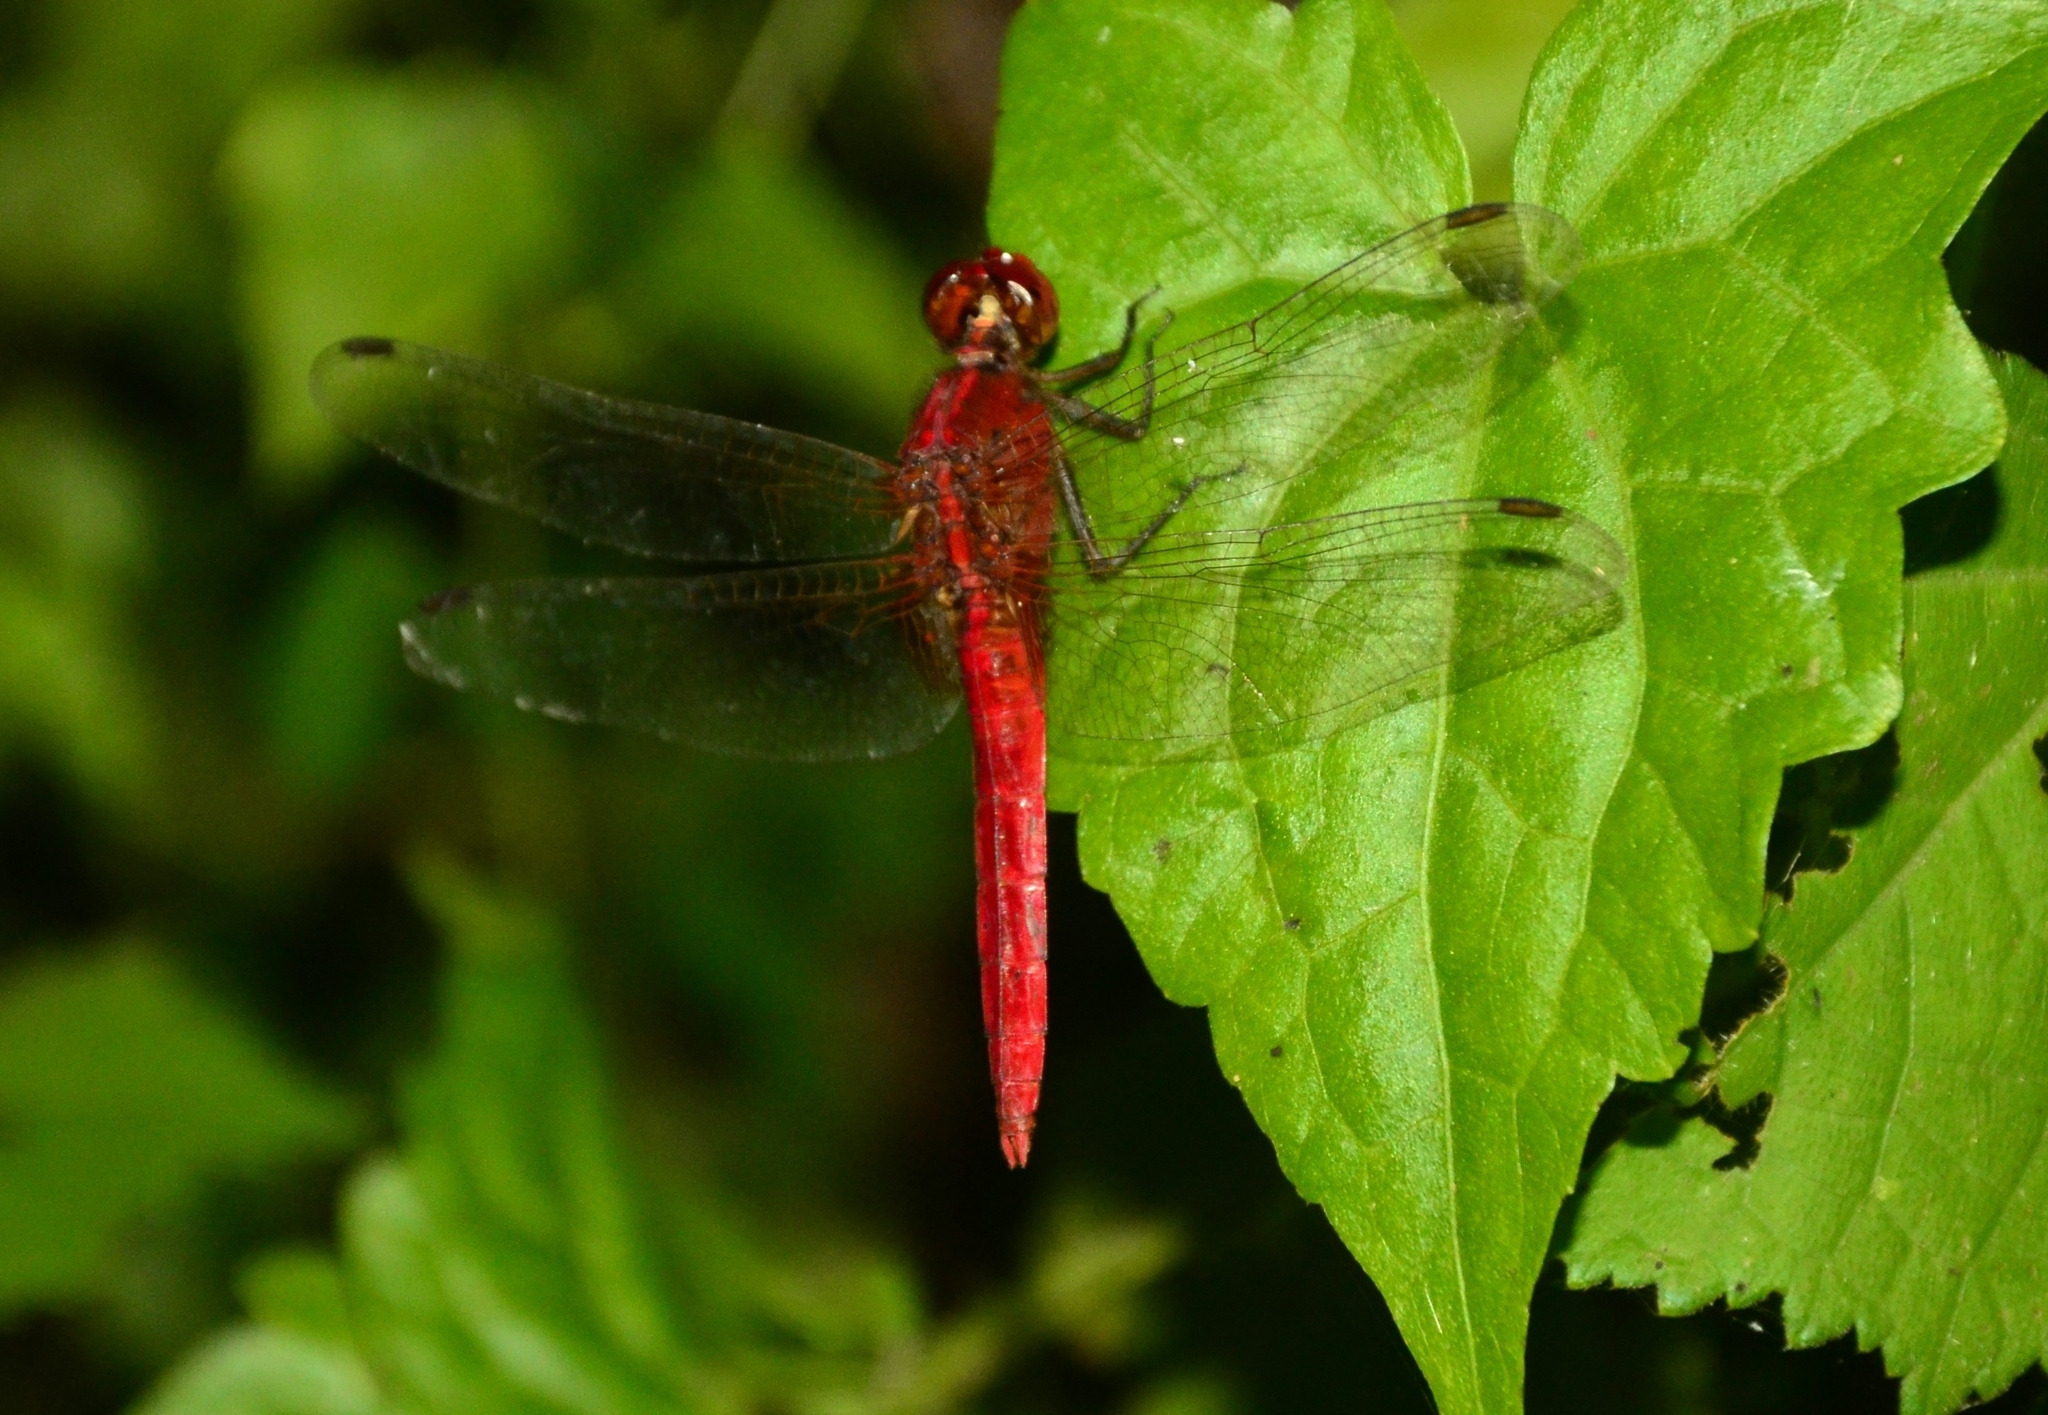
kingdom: Animalia
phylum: Arthropoda
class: Insecta
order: Odonata
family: Libellulidae
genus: Rhodothemis
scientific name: Rhodothemis rufa
